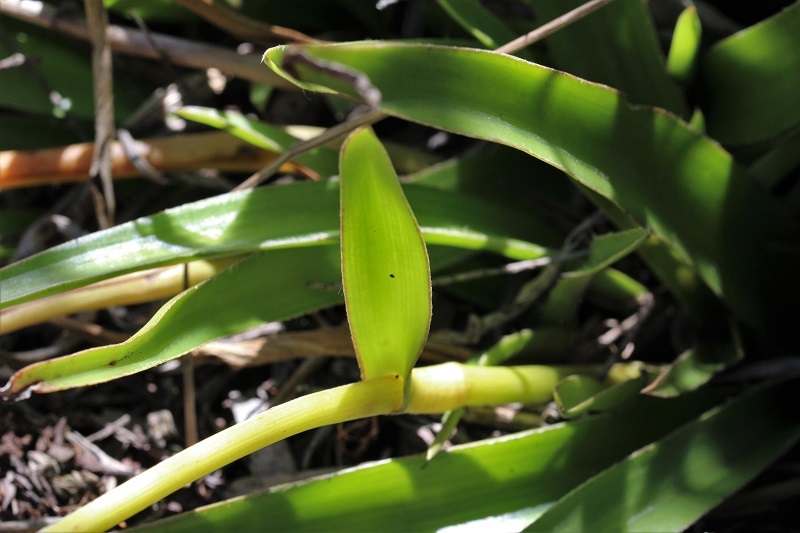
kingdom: Plantae
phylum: Tracheophyta
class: Liliopsida
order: Commelinales
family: Commelinaceae
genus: Cyanotis
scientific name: Cyanotis speciosa
